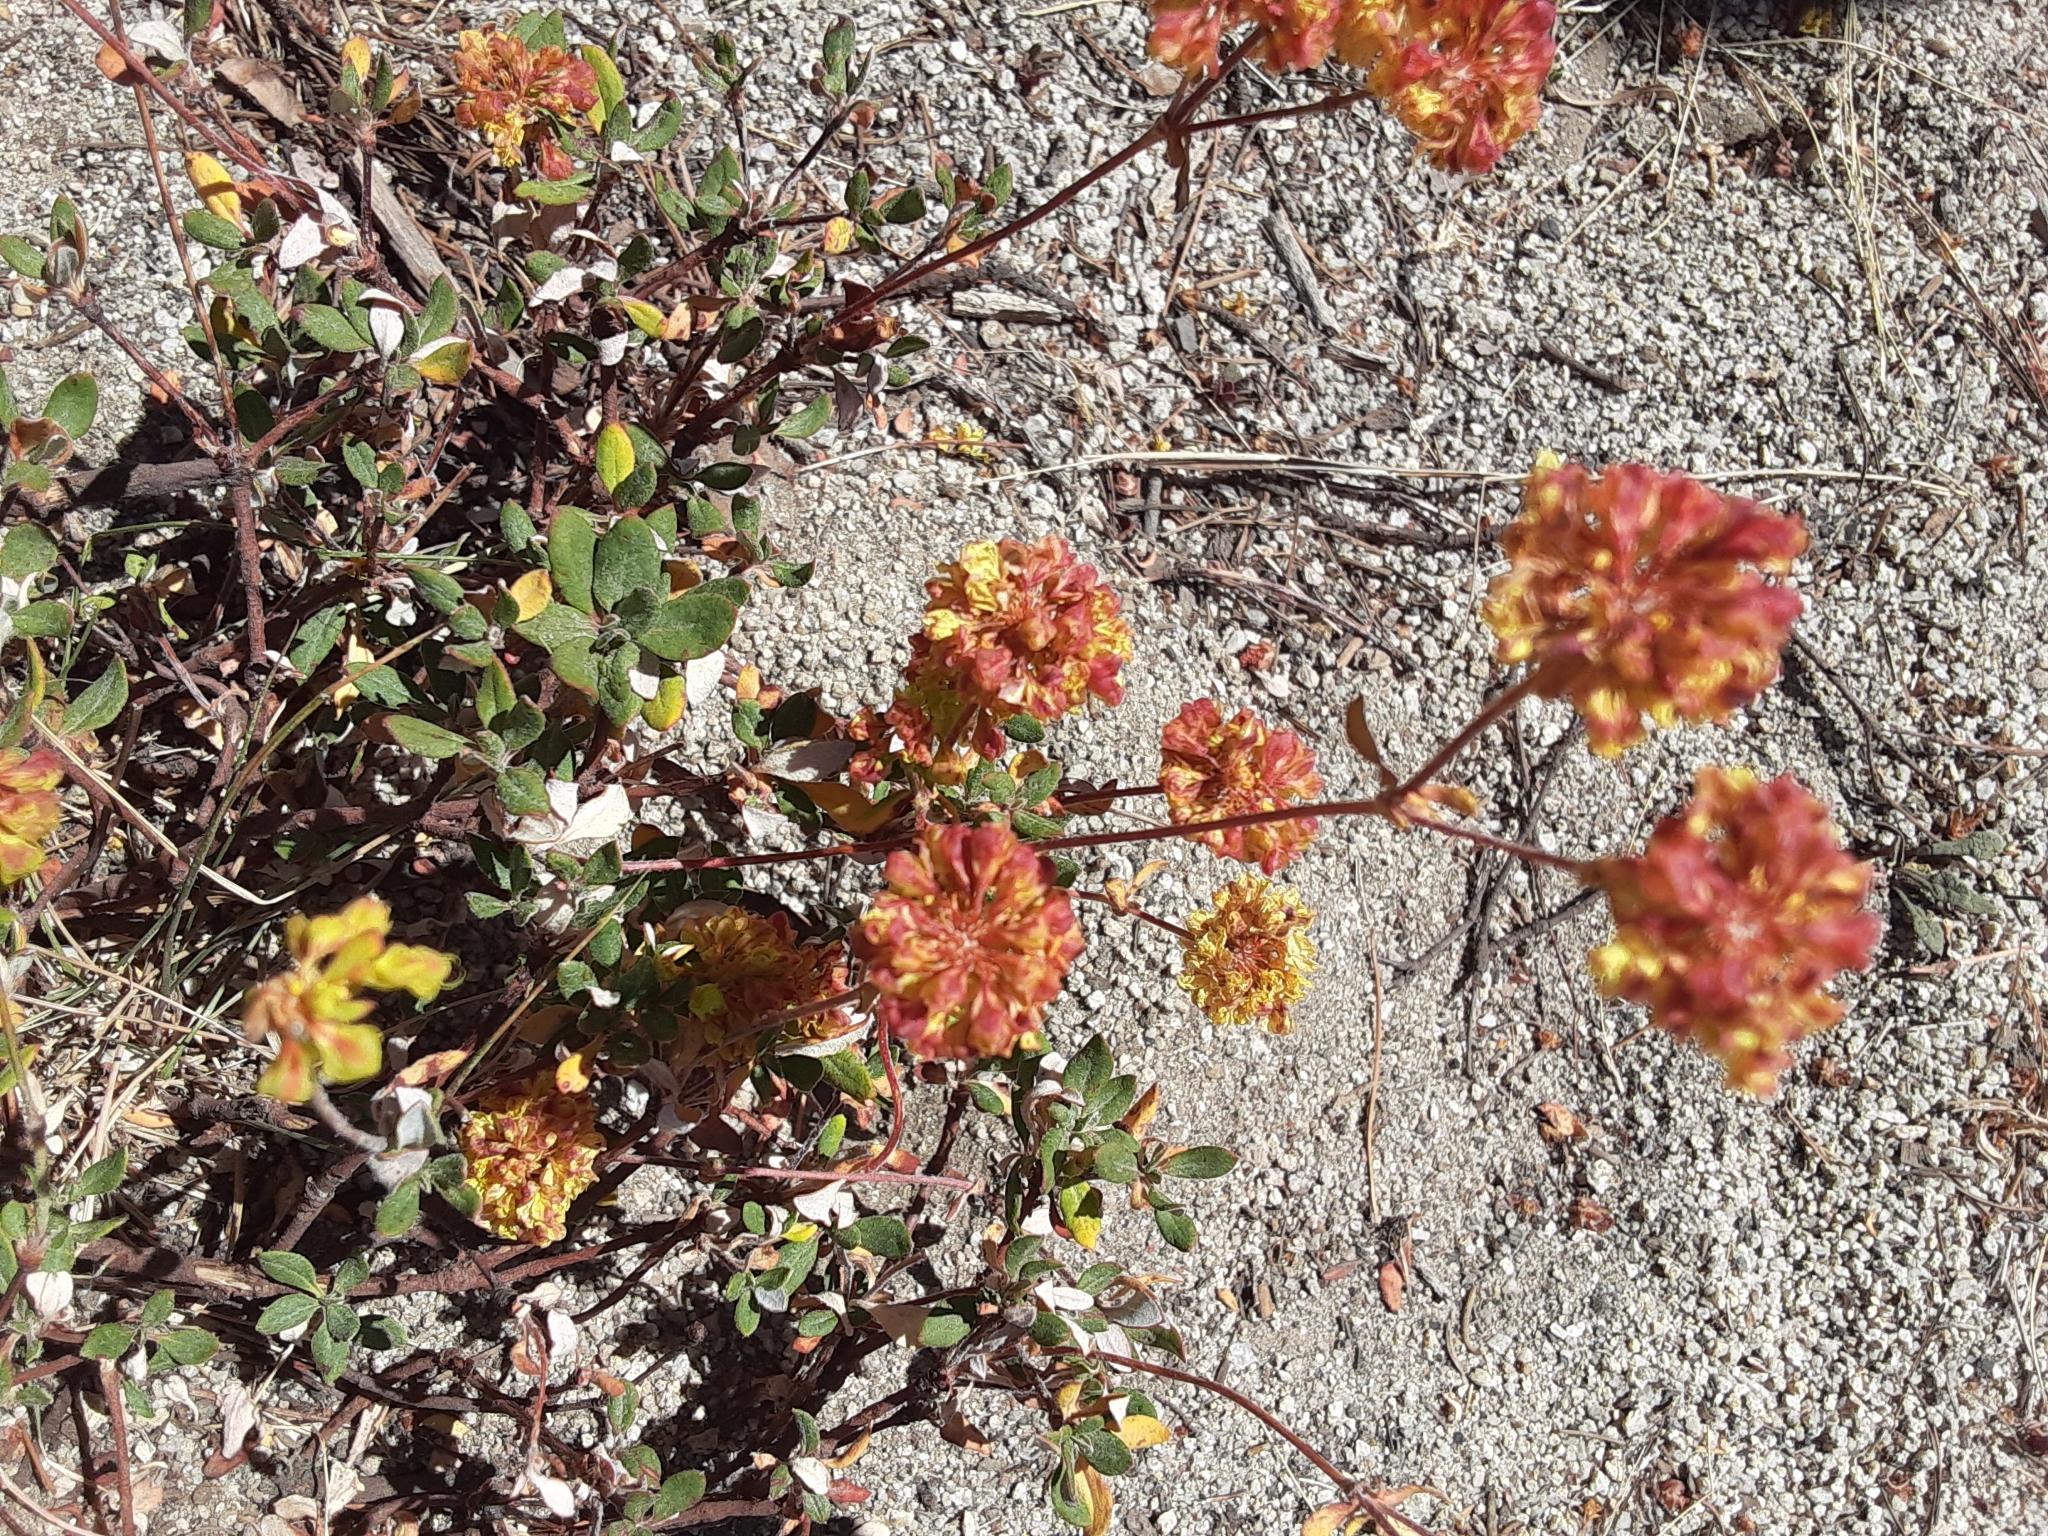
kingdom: Plantae
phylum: Tracheophyta
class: Magnoliopsida
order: Caryophyllales
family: Polygonaceae
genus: Eriogonum
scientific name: Eriogonum umbellatum
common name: Sulfur-buckwheat
